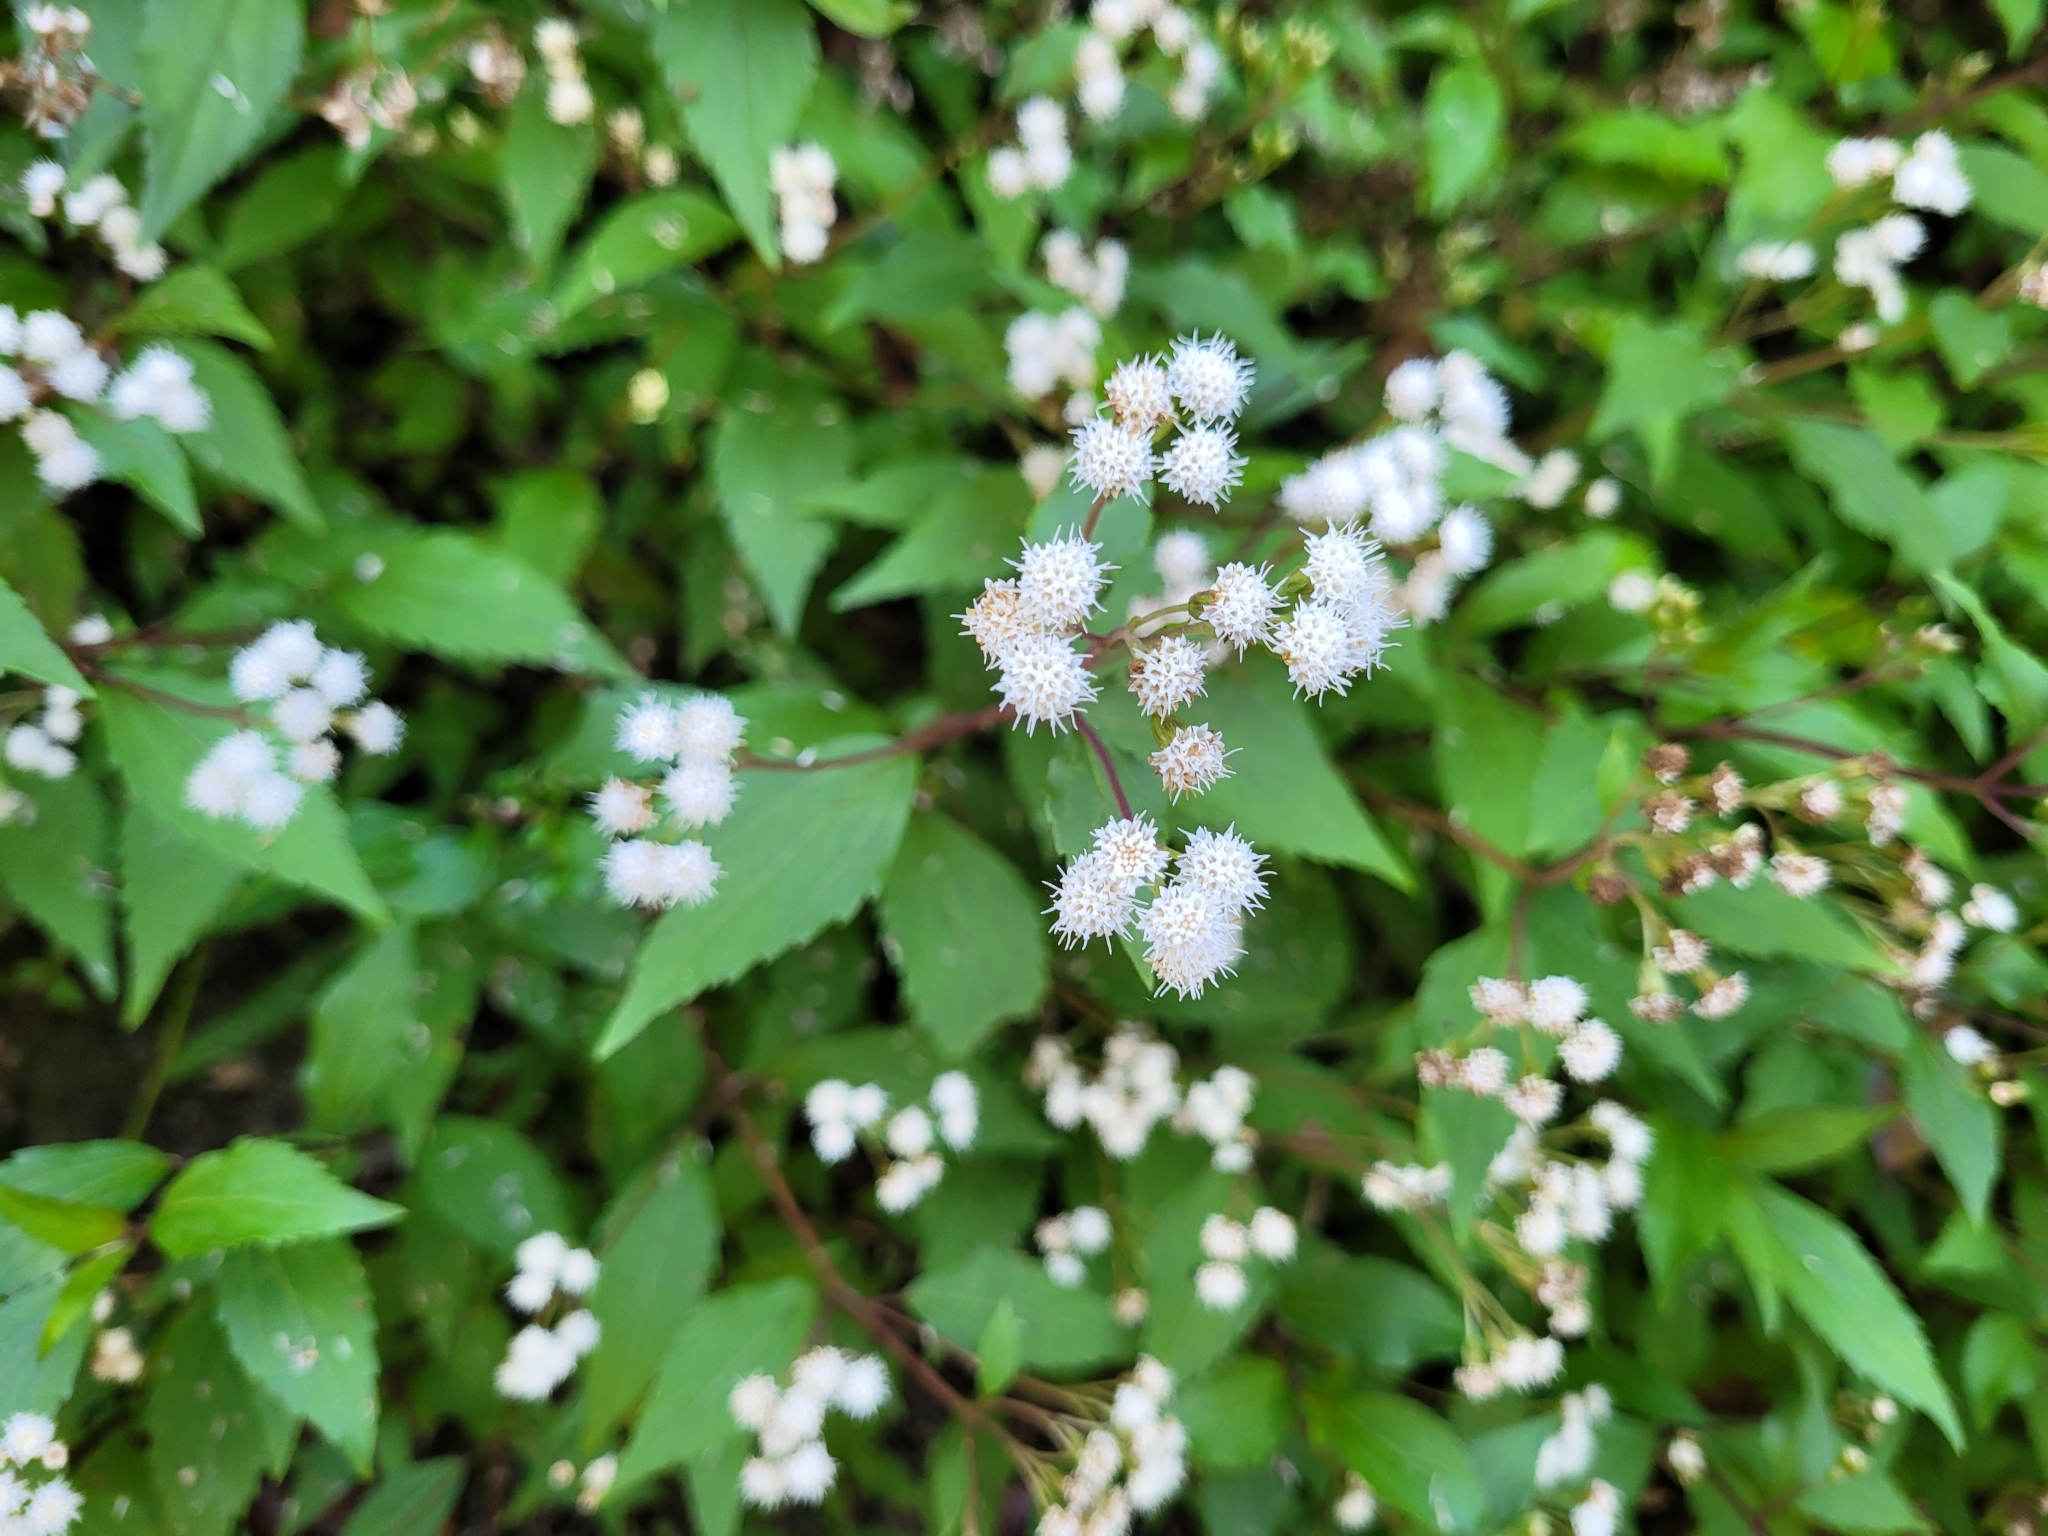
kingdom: Plantae
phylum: Tracheophyta
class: Magnoliopsida
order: Asterales
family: Asteraceae
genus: Ageratina
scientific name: Ageratina riparia
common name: Creeping croftonweed
